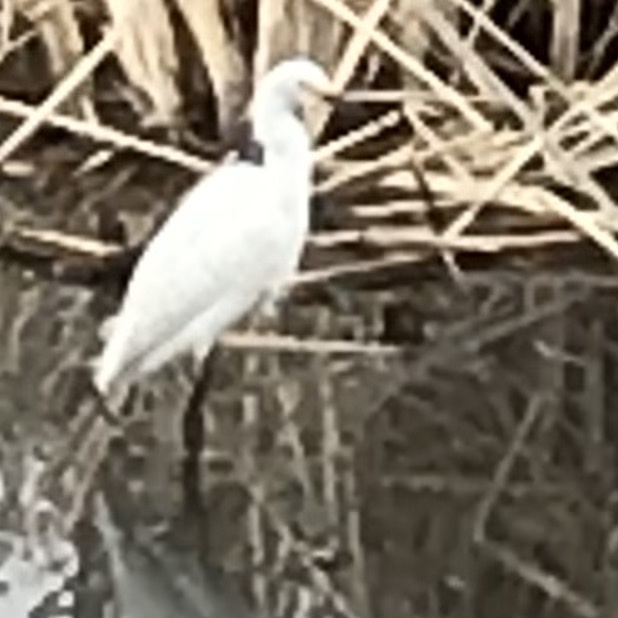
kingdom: Animalia
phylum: Chordata
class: Aves
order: Pelecaniformes
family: Ardeidae
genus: Egretta
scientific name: Egretta thula
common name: Snowy egret
